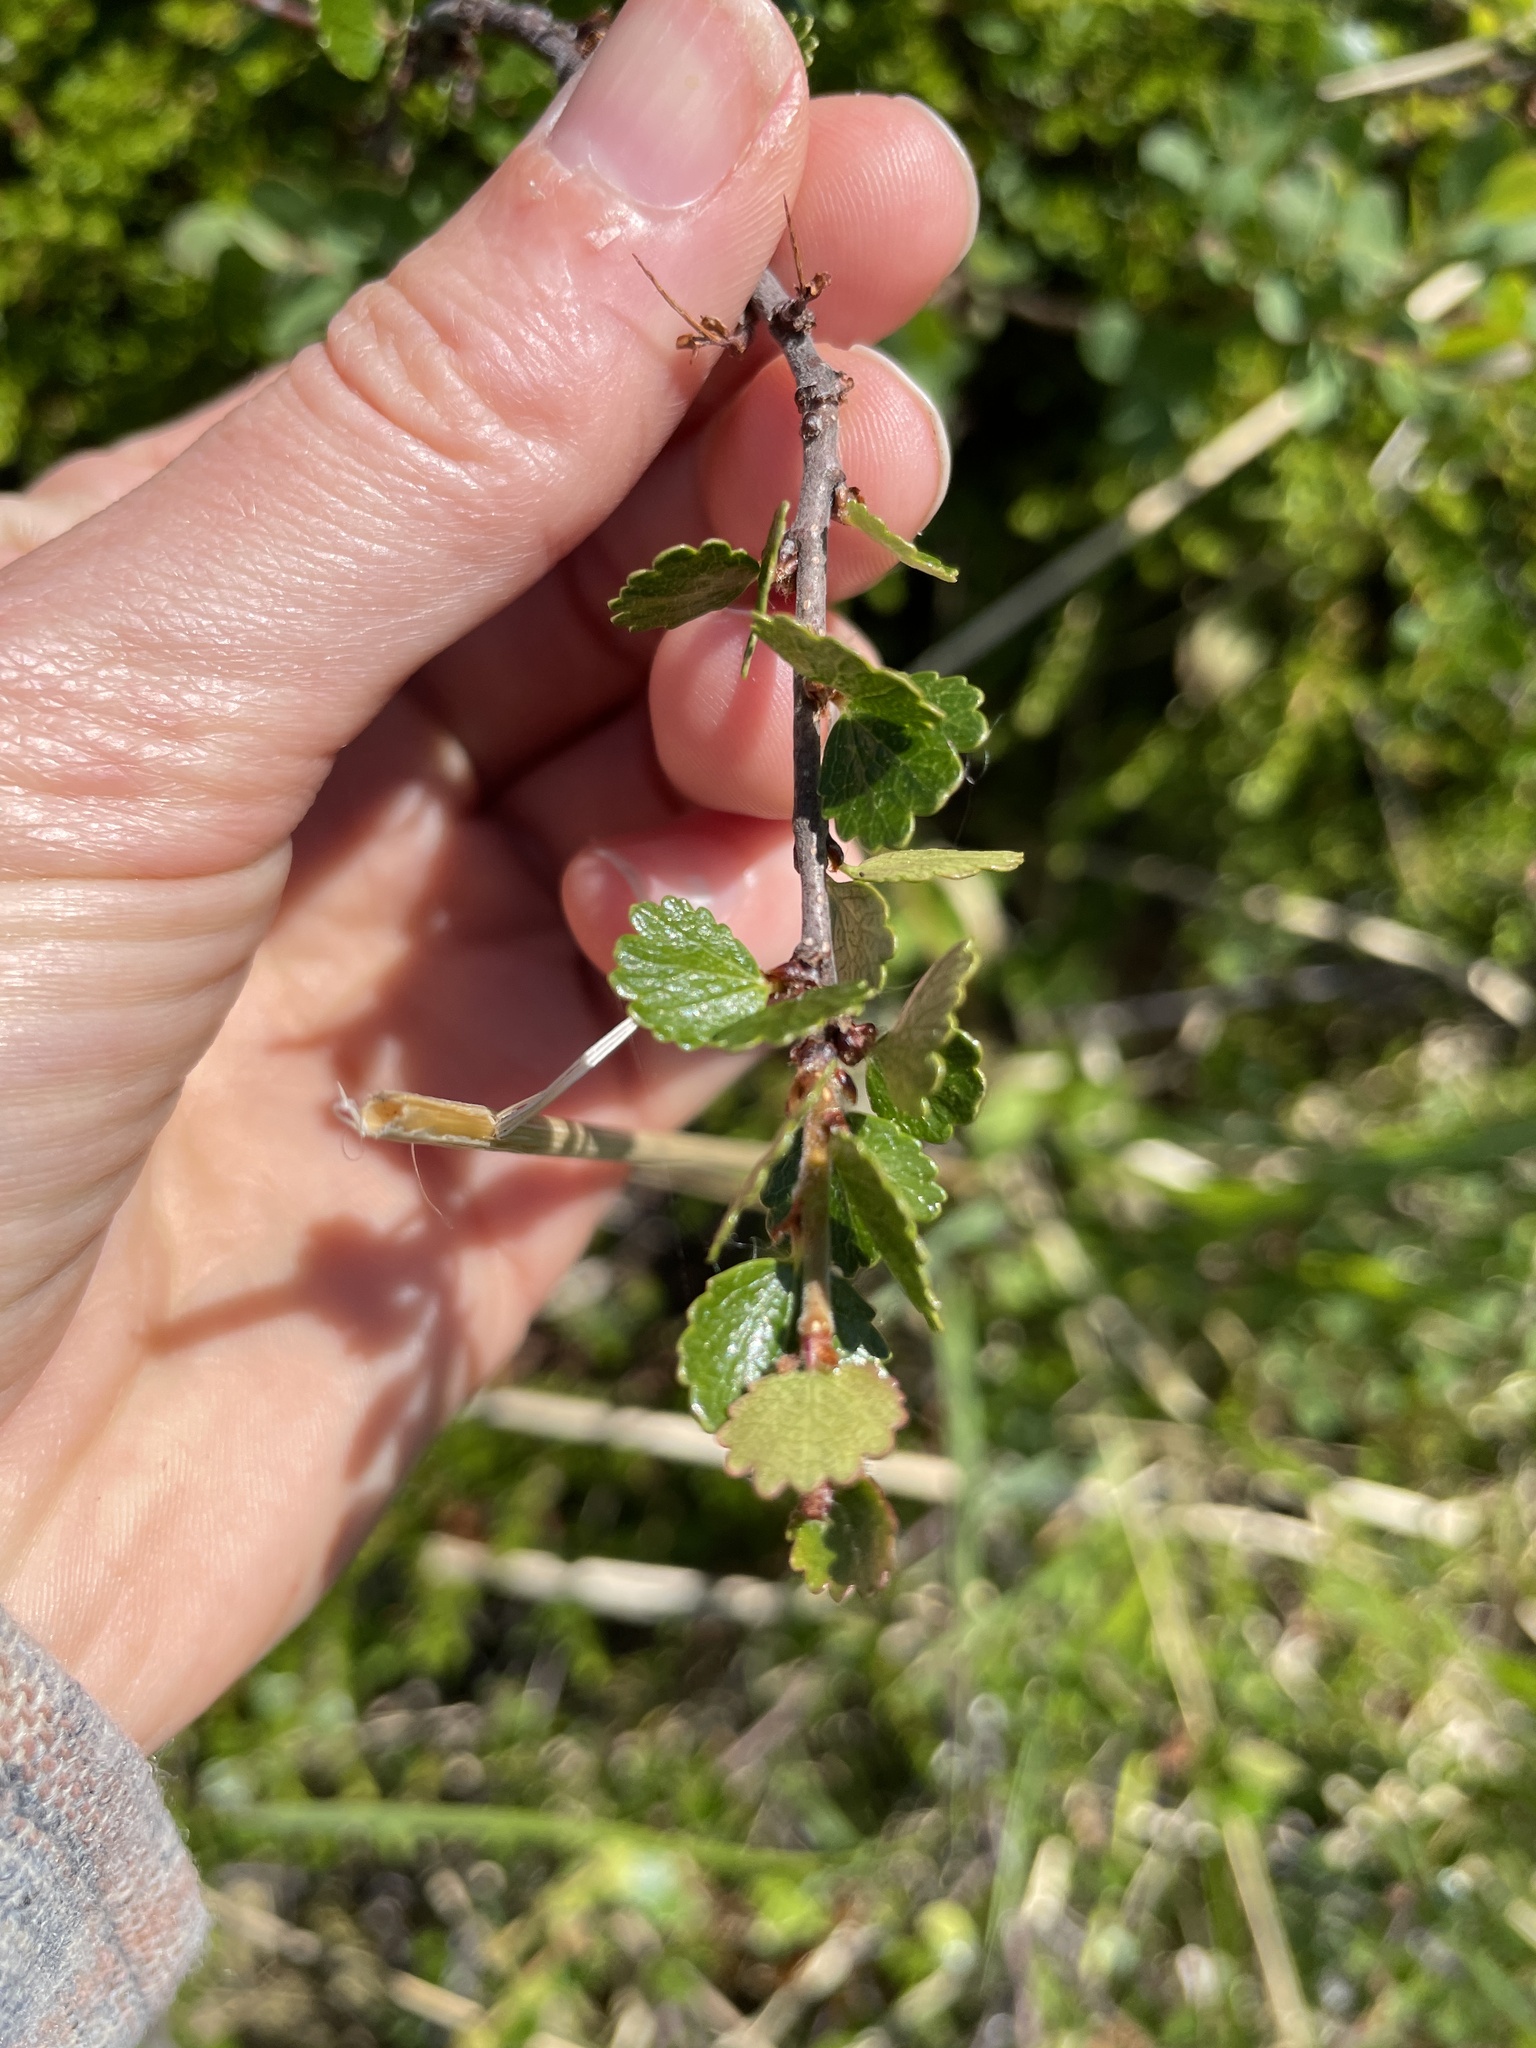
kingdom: Plantae
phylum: Tracheophyta
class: Magnoliopsida
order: Fagales
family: Betulaceae
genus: Betula
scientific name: Betula nana
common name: Arctic dwarf birch
